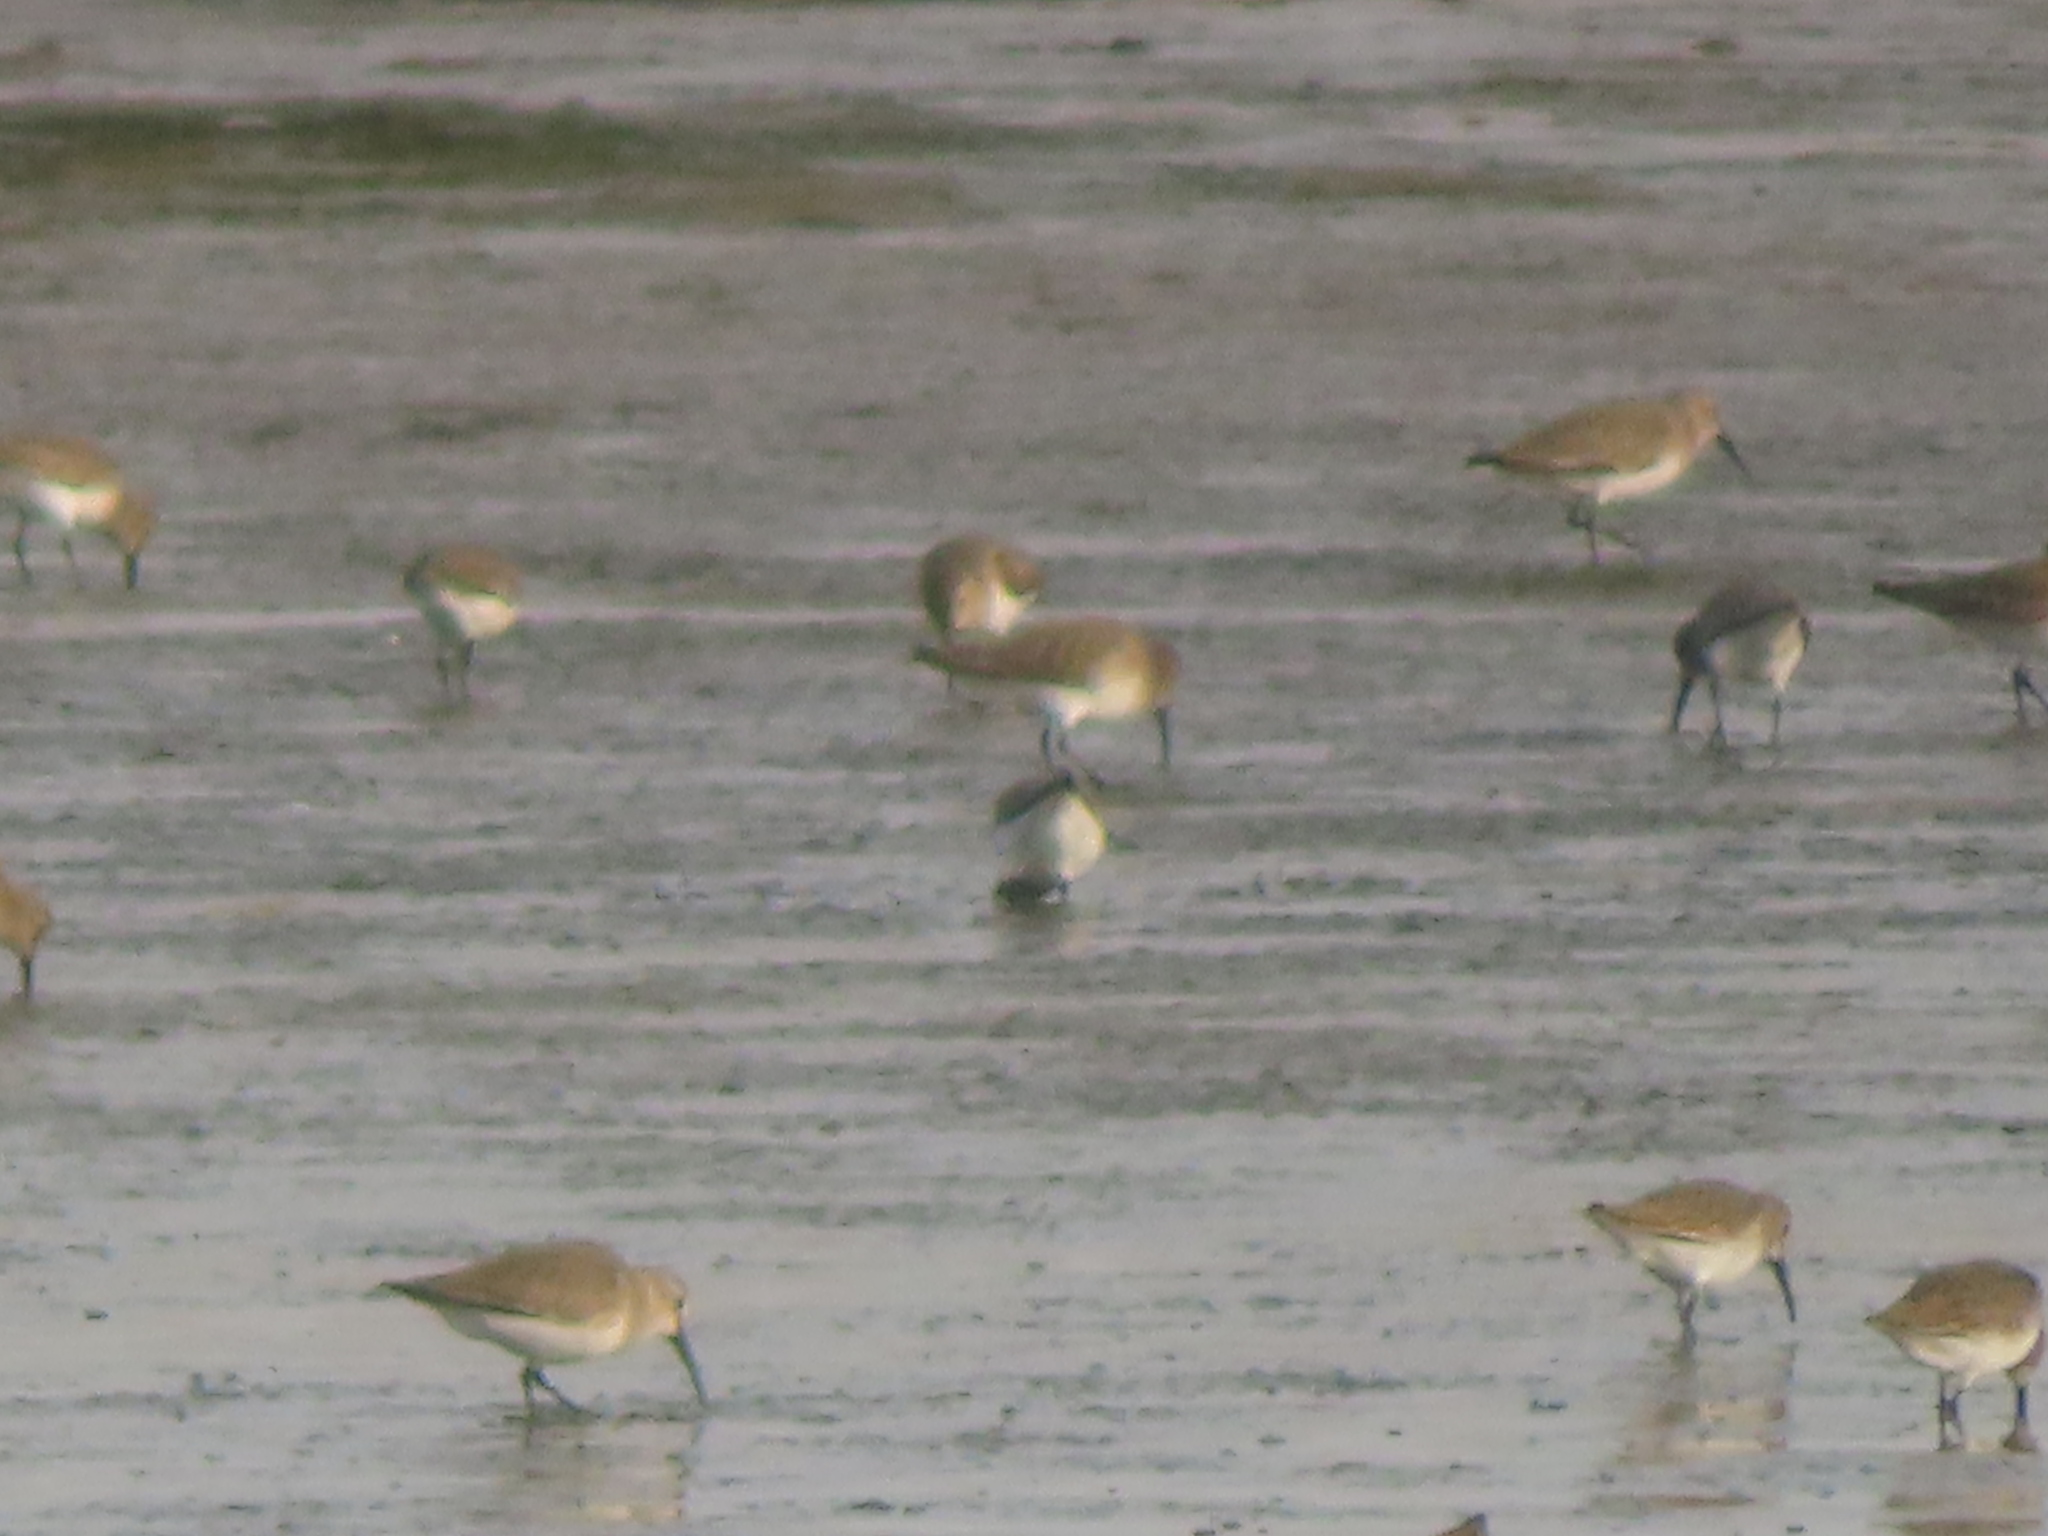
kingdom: Animalia
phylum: Chordata
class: Aves
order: Charadriiformes
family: Scolopacidae
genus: Calidris
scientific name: Calidris alpina
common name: Dunlin
